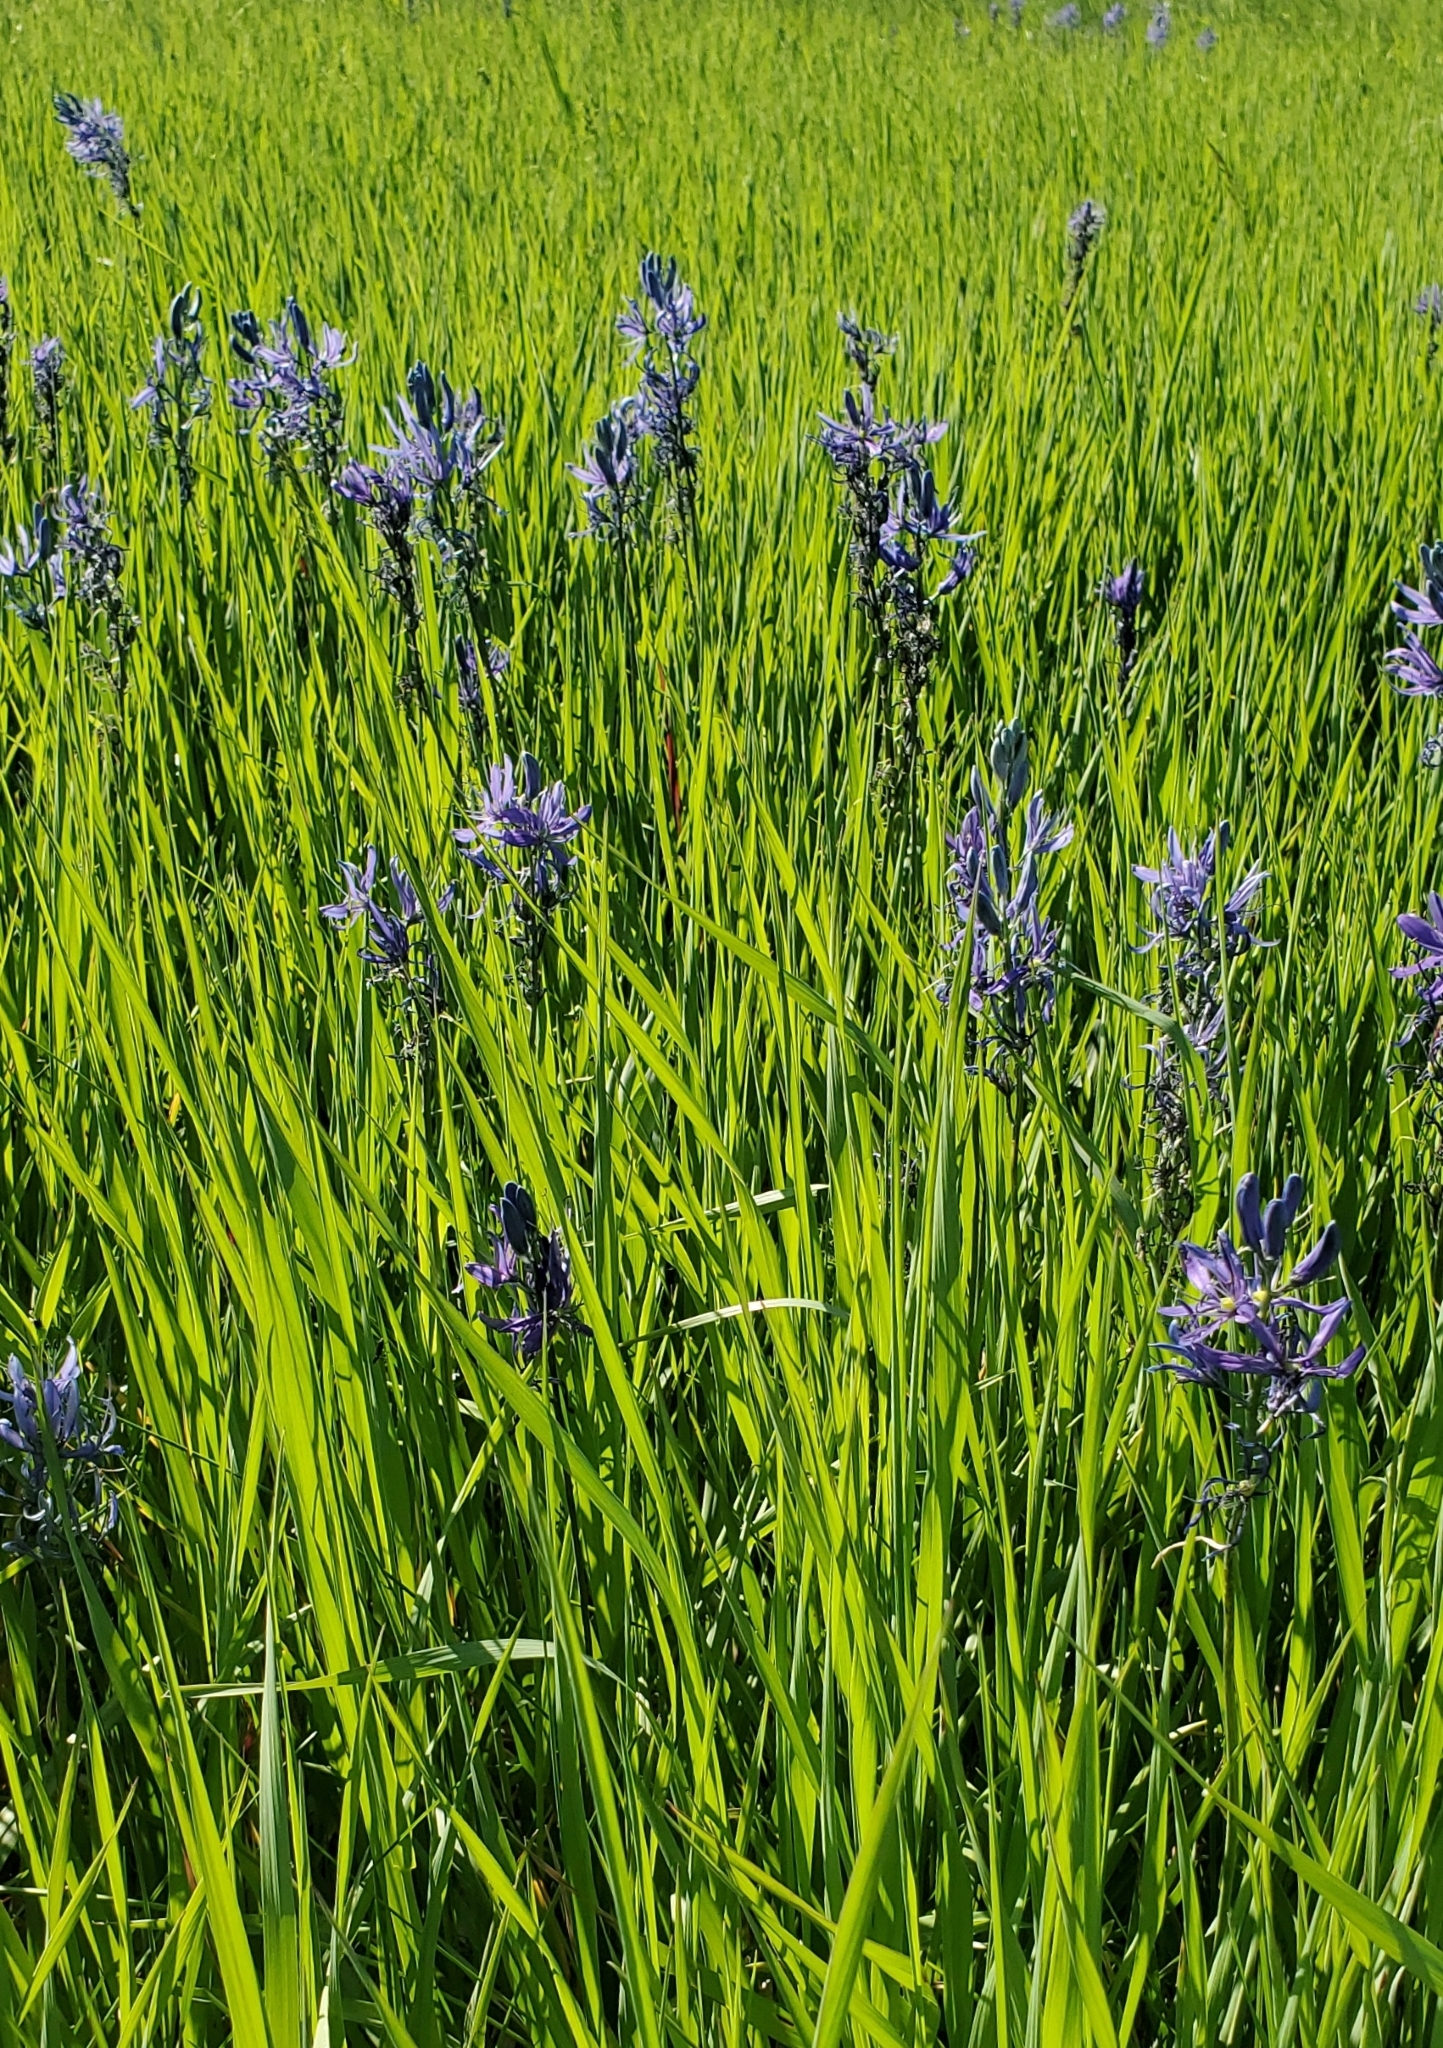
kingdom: Plantae
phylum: Tracheophyta
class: Liliopsida
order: Asparagales
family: Asparagaceae
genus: Camassia
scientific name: Camassia quamash
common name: Common camas
